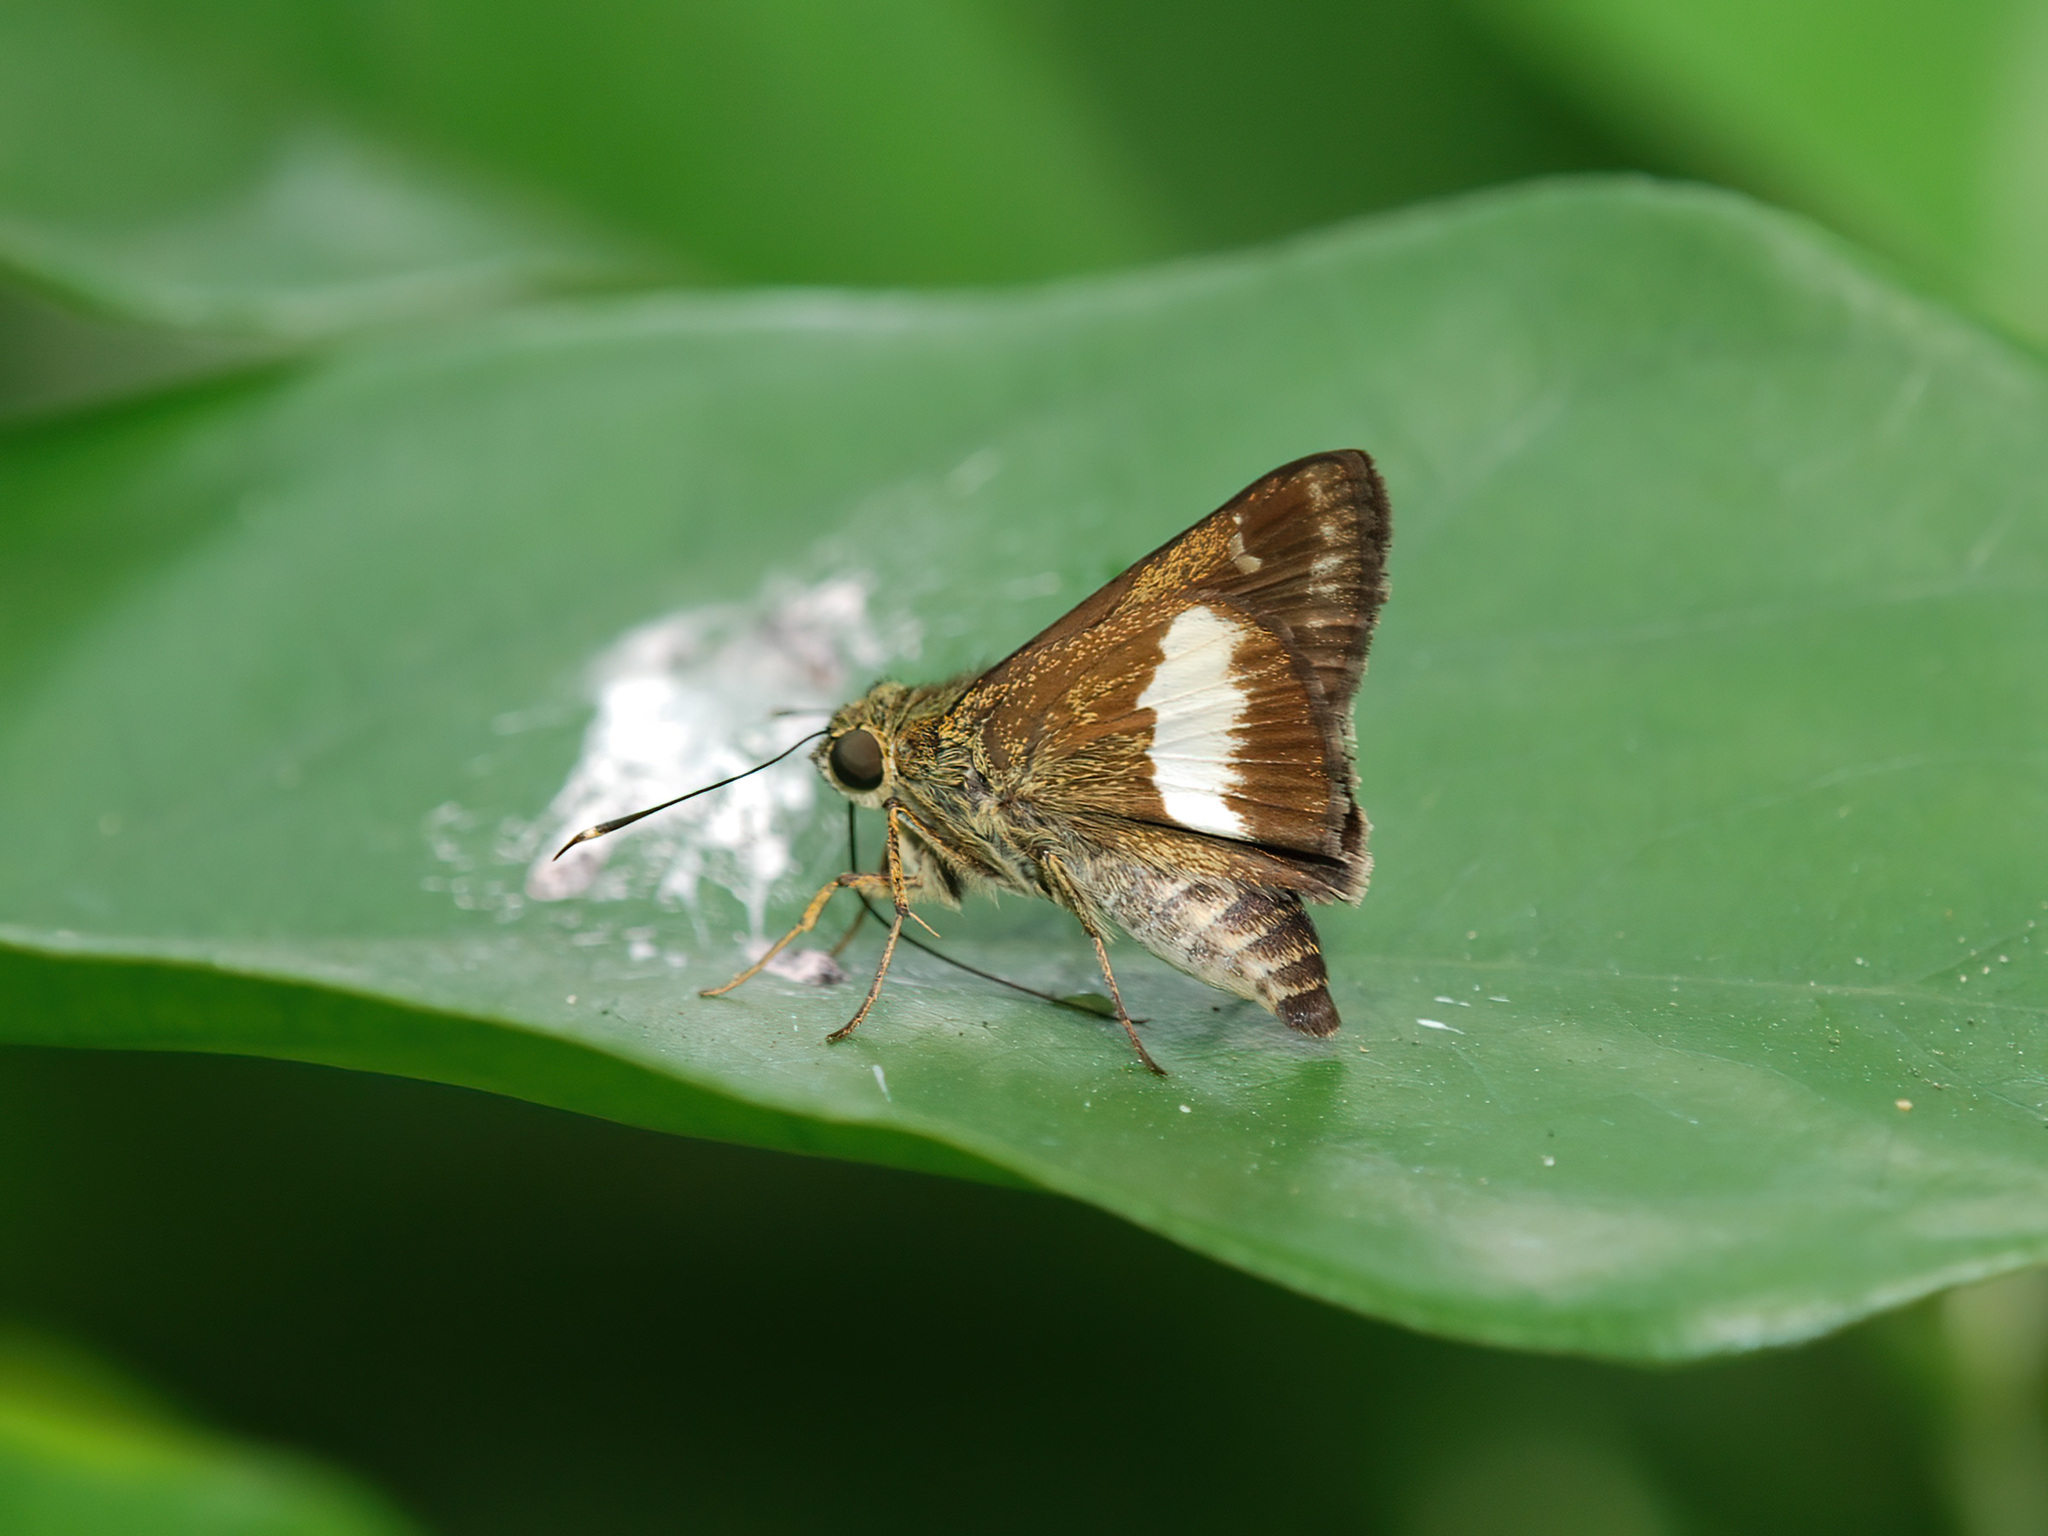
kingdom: Animalia
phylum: Arthropoda
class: Insecta
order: Lepidoptera
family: Hesperiidae
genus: Halpe
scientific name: Halpe
